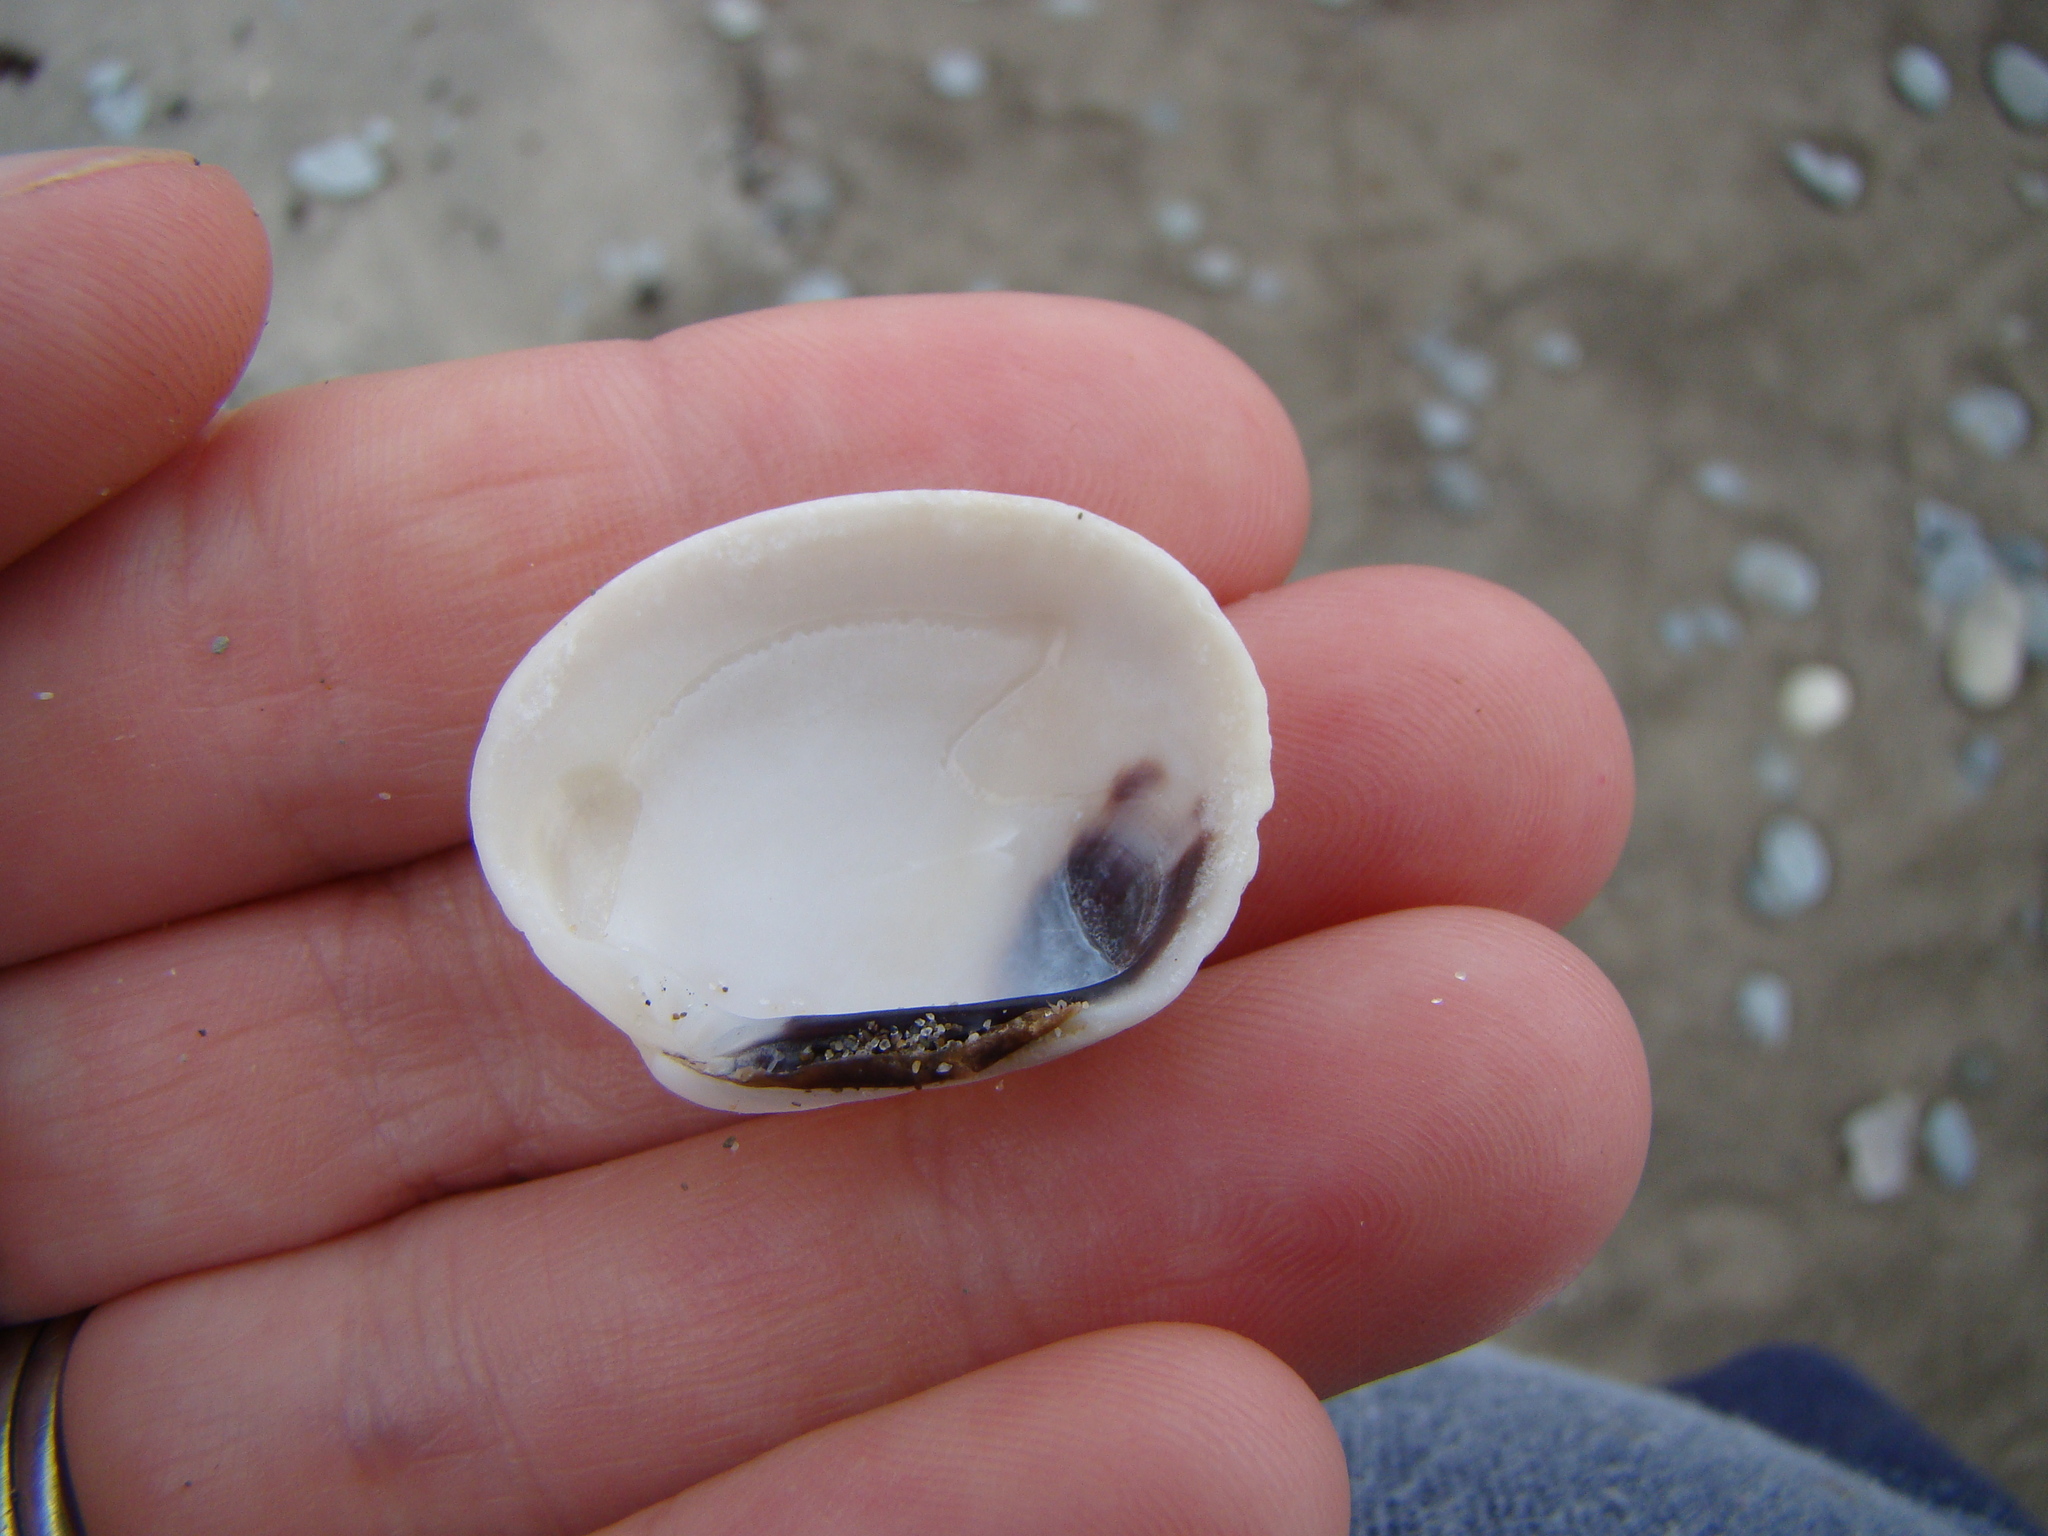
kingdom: Animalia
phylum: Mollusca
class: Bivalvia
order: Venerida
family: Veneridae
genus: Leukoma
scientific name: Leukoma crassicosta
